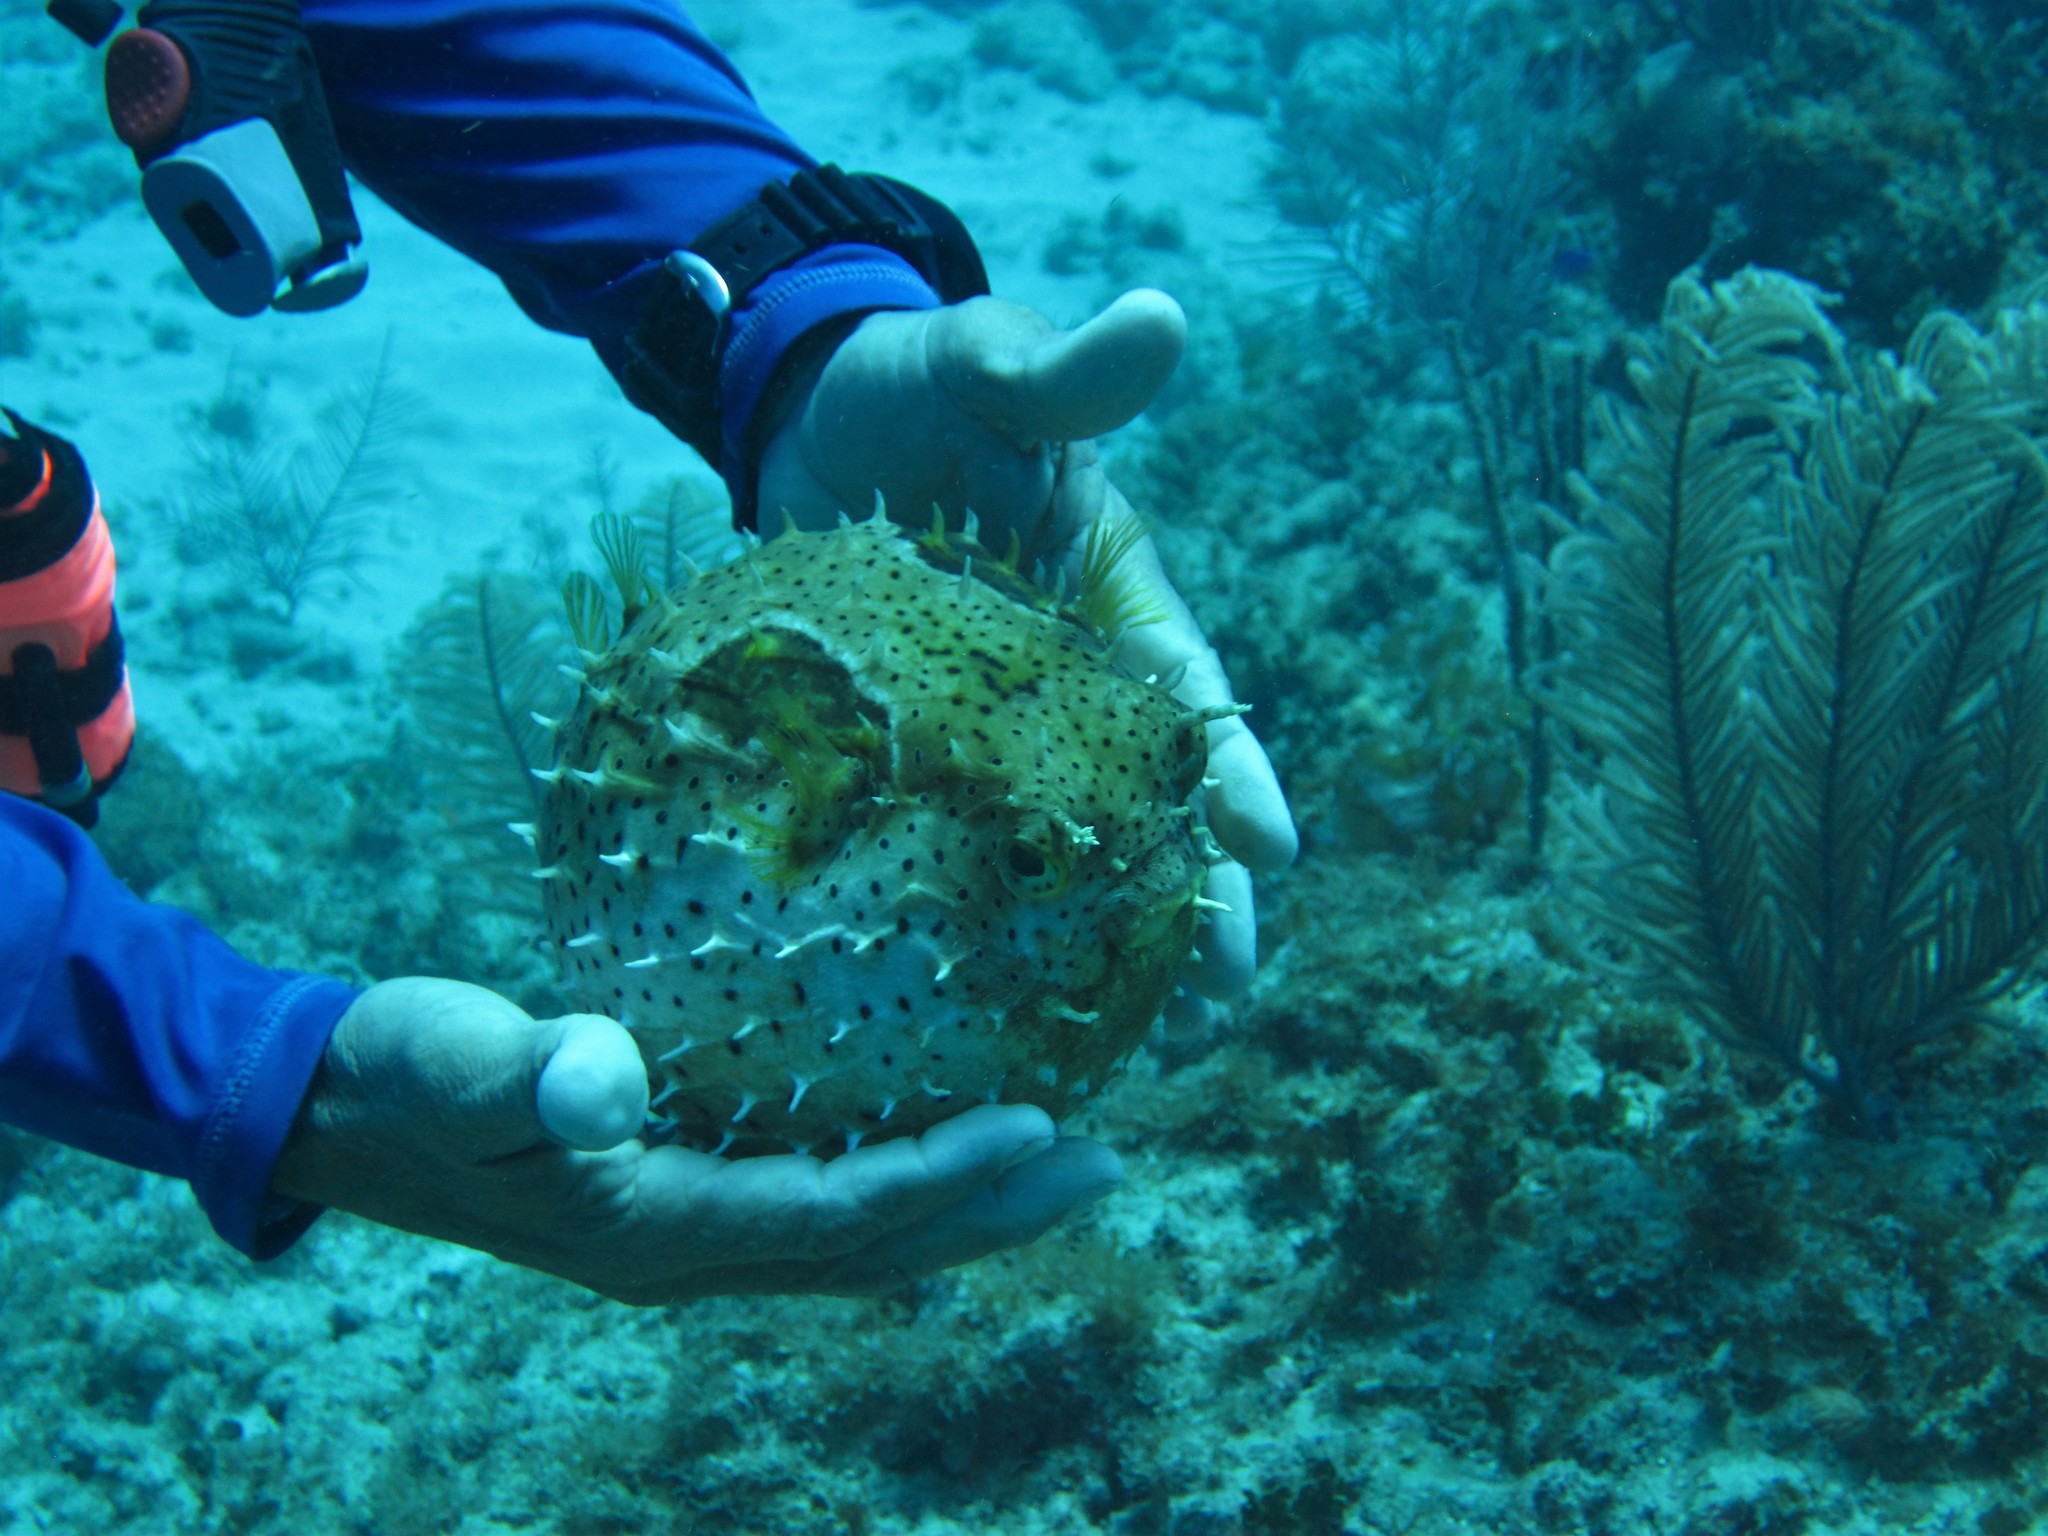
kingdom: Animalia
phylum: Chordata
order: Tetraodontiformes
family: Diodontidae
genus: Chilomycterus
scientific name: Chilomycterus antennatus
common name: Bridled burrfish
